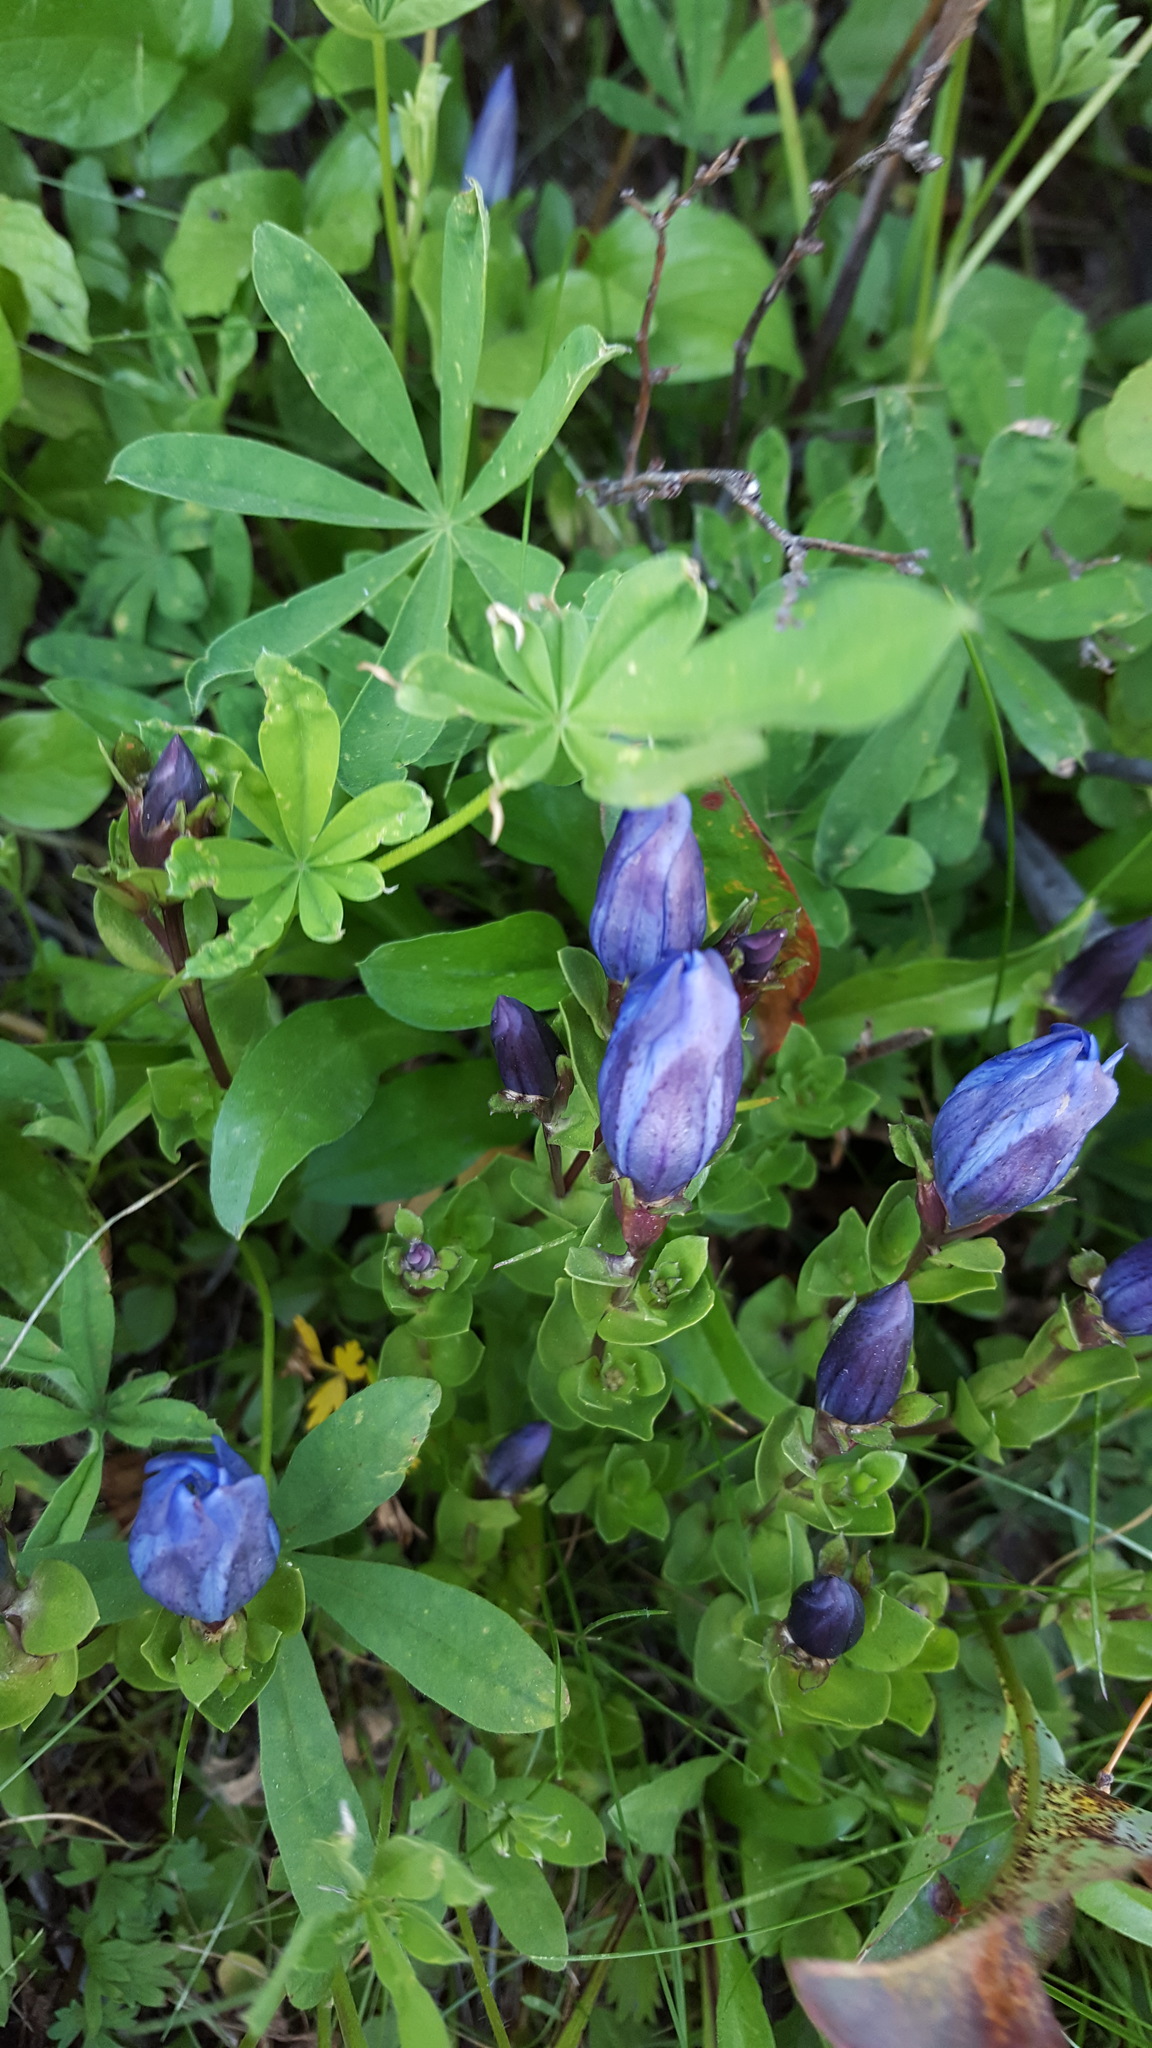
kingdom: Plantae
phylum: Tracheophyta
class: Magnoliopsida
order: Gentianales
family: Gentianaceae
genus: Gentiana
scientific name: Gentiana calycosa
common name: Rainier pleated gentian
